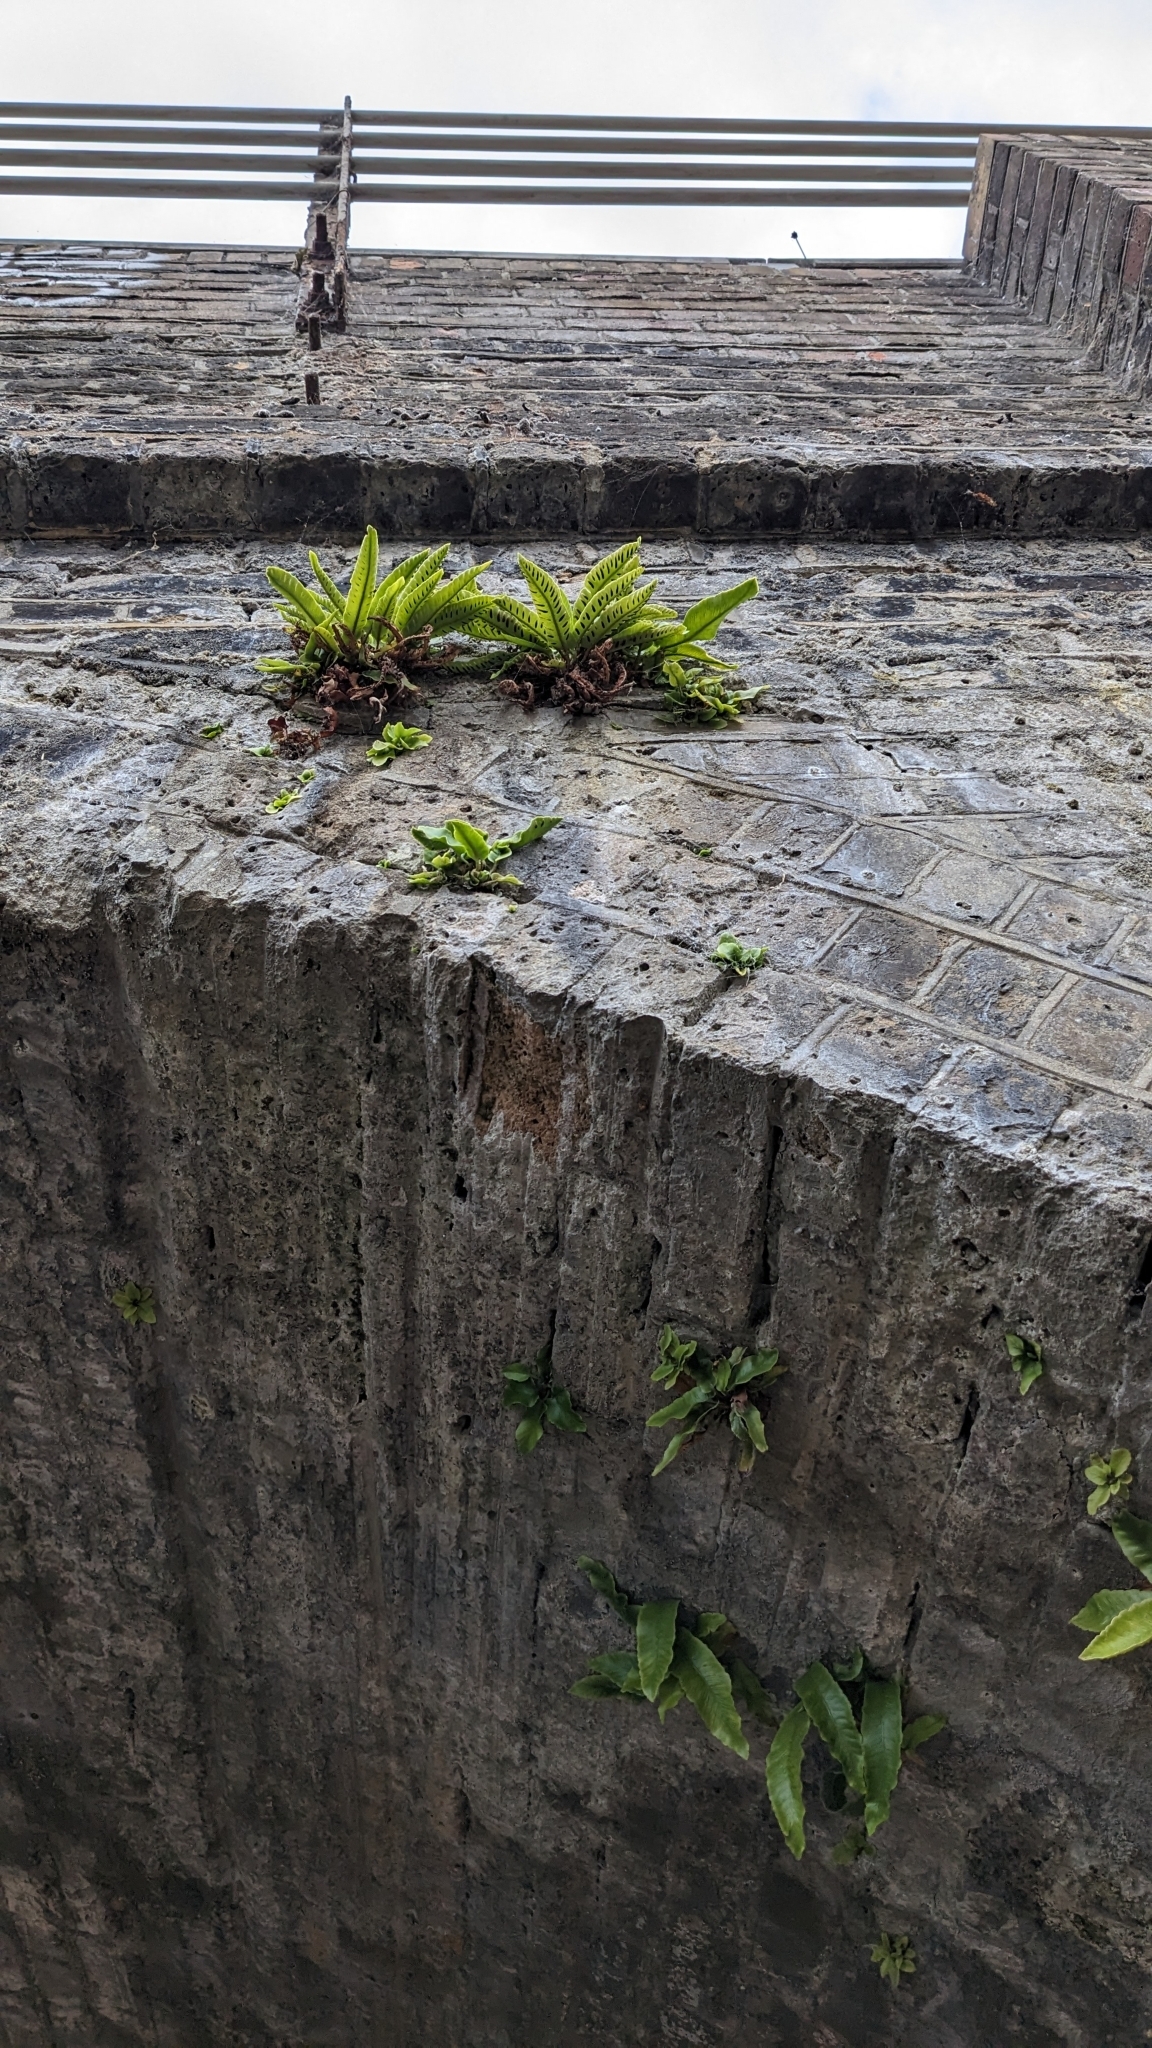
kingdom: Plantae
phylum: Tracheophyta
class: Polypodiopsida
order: Polypodiales
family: Aspleniaceae
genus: Asplenium
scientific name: Asplenium scolopendrium
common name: Hart's-tongue fern
